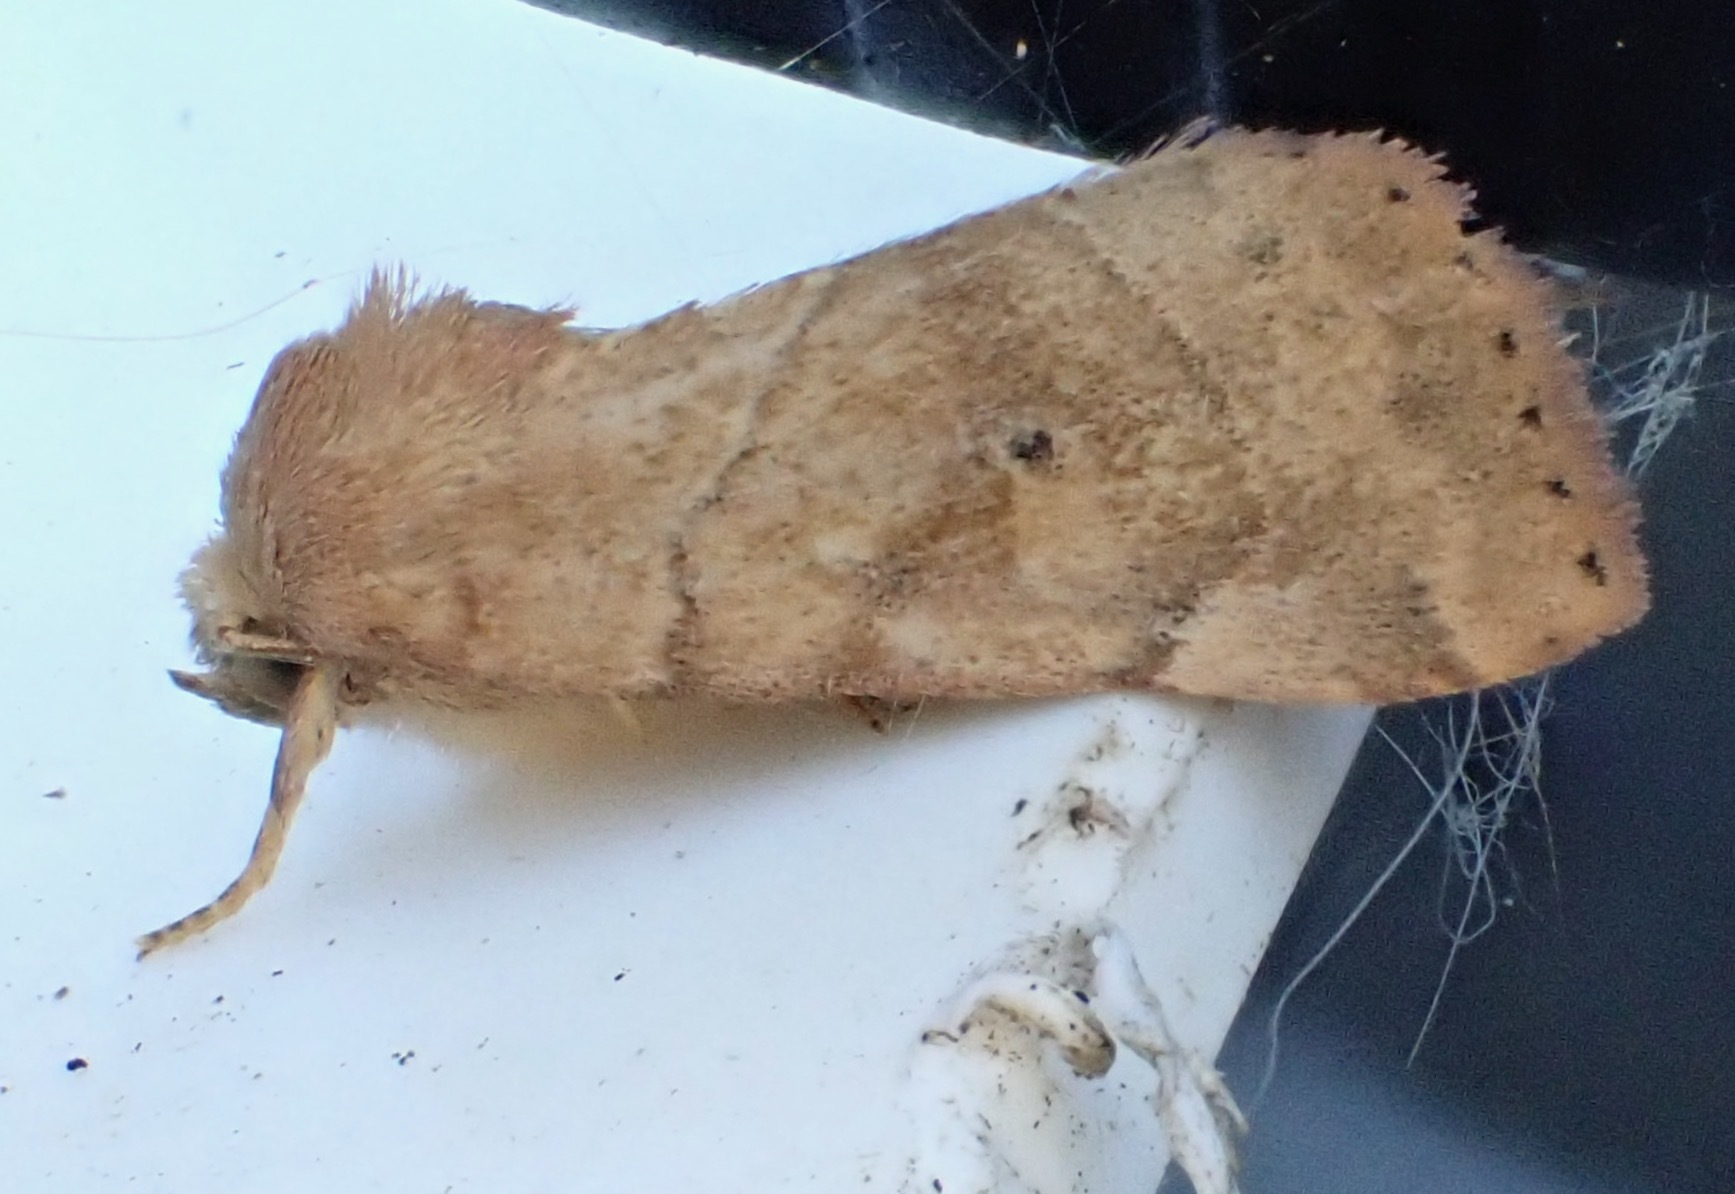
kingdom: Animalia
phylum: Arthropoda
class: Insecta
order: Lepidoptera
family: Noctuidae
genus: Cosmia
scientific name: Cosmia trapezina
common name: Dun-bar
